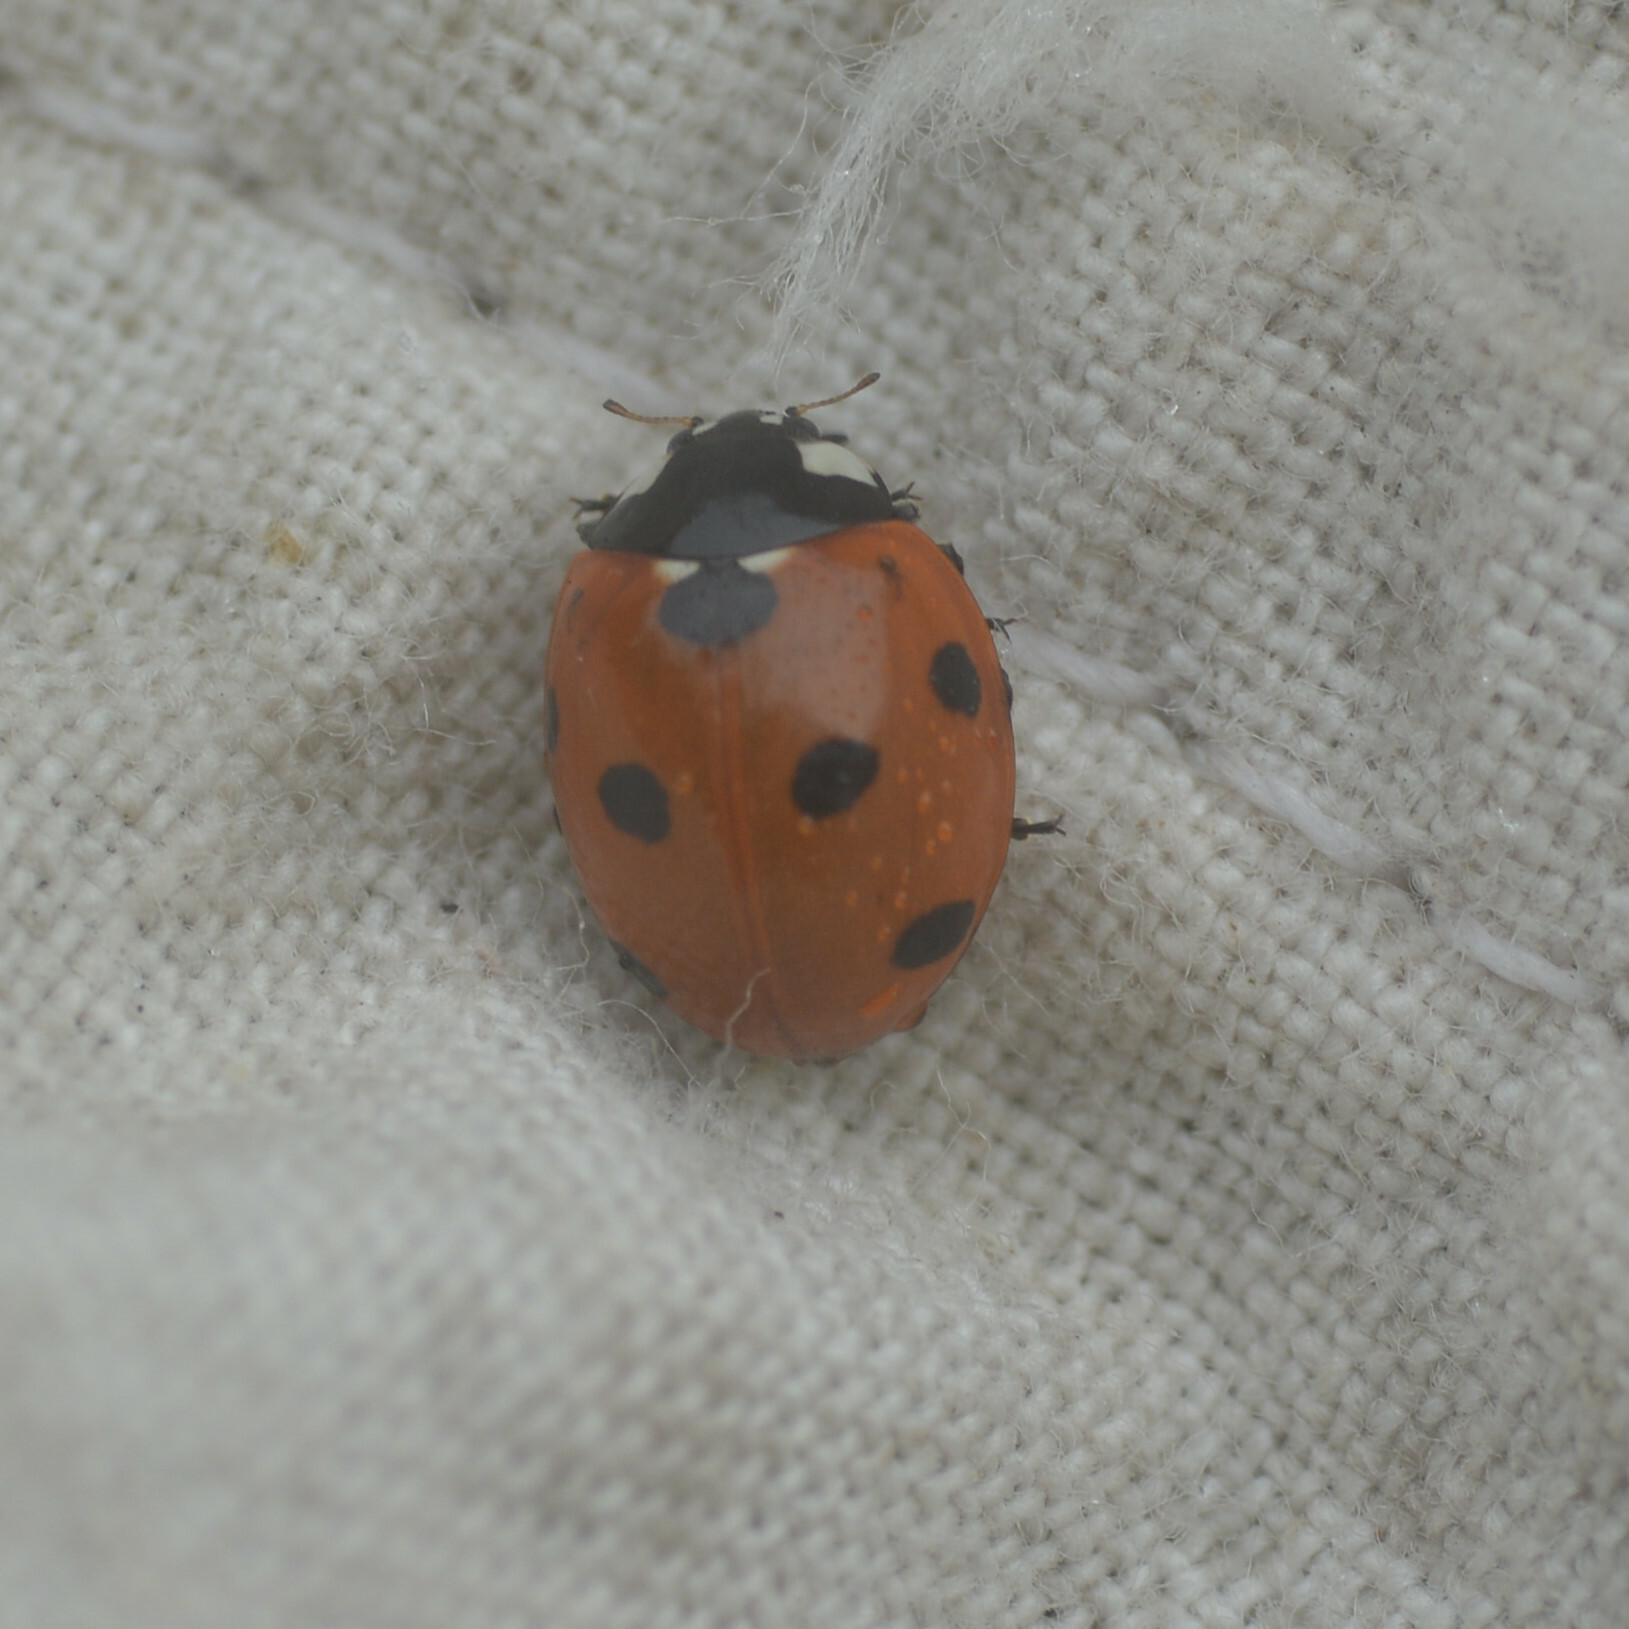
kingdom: Animalia
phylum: Arthropoda
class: Insecta
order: Coleoptera
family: Coccinellidae
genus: Coccinella
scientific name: Coccinella septempunctata
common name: Sevenspotted lady beetle
